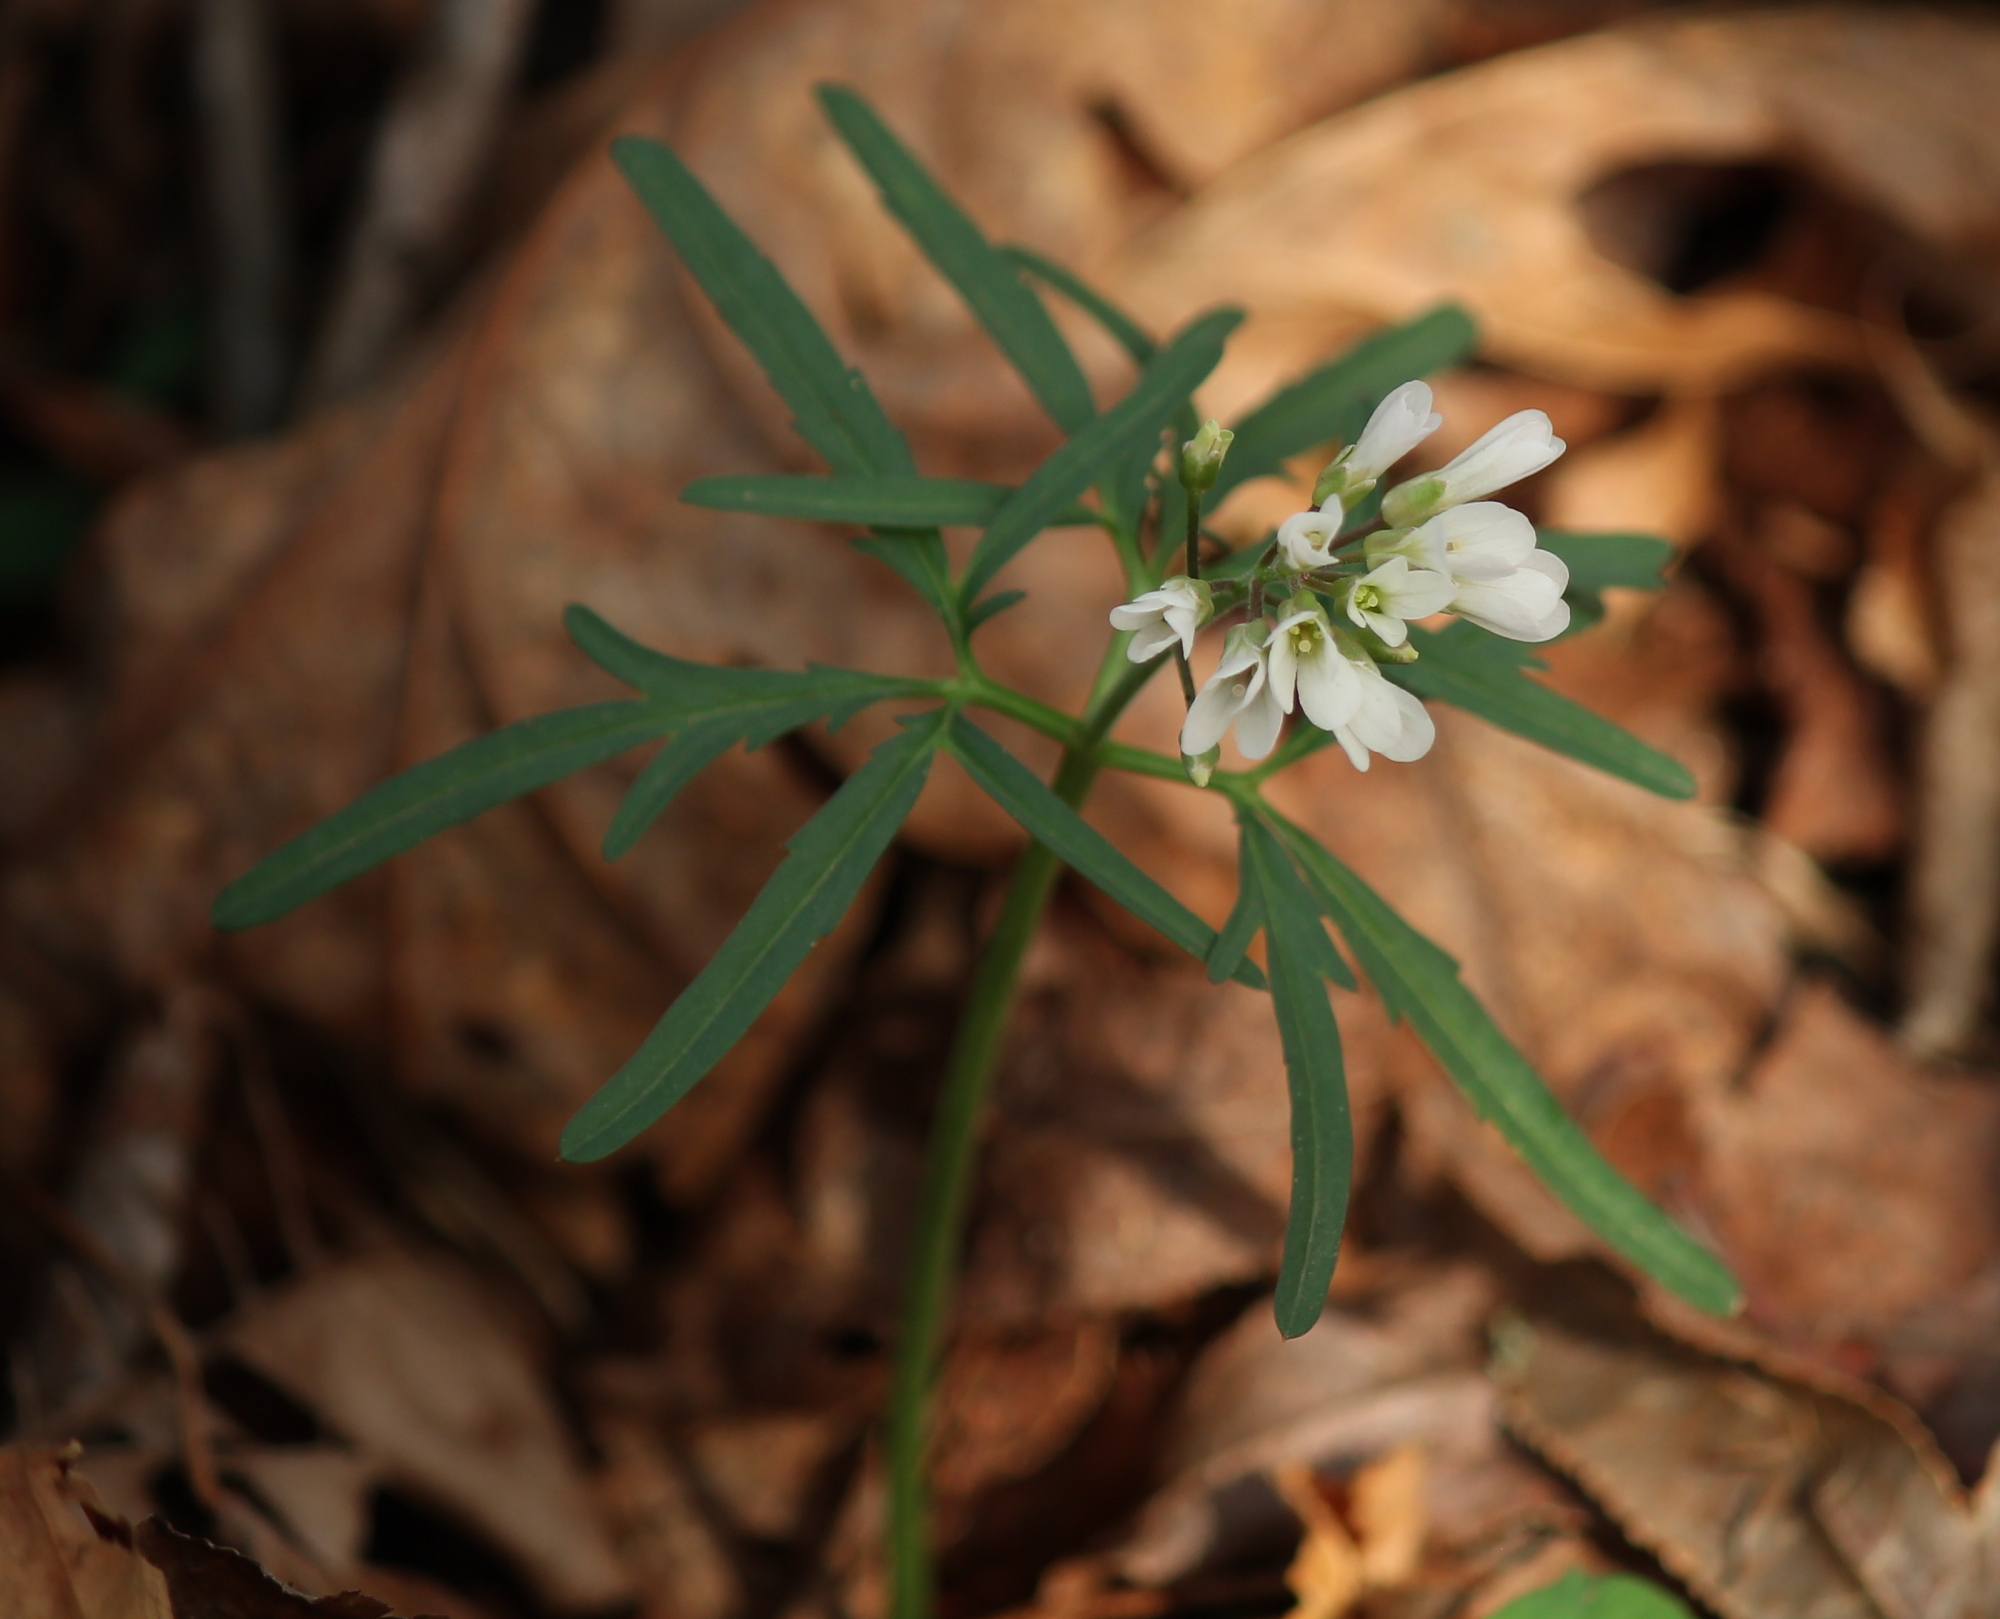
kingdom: Plantae
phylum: Tracheophyta
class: Magnoliopsida
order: Brassicales
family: Brassicaceae
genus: Cardamine
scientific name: Cardamine concatenata
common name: Cut-leaf toothcup
